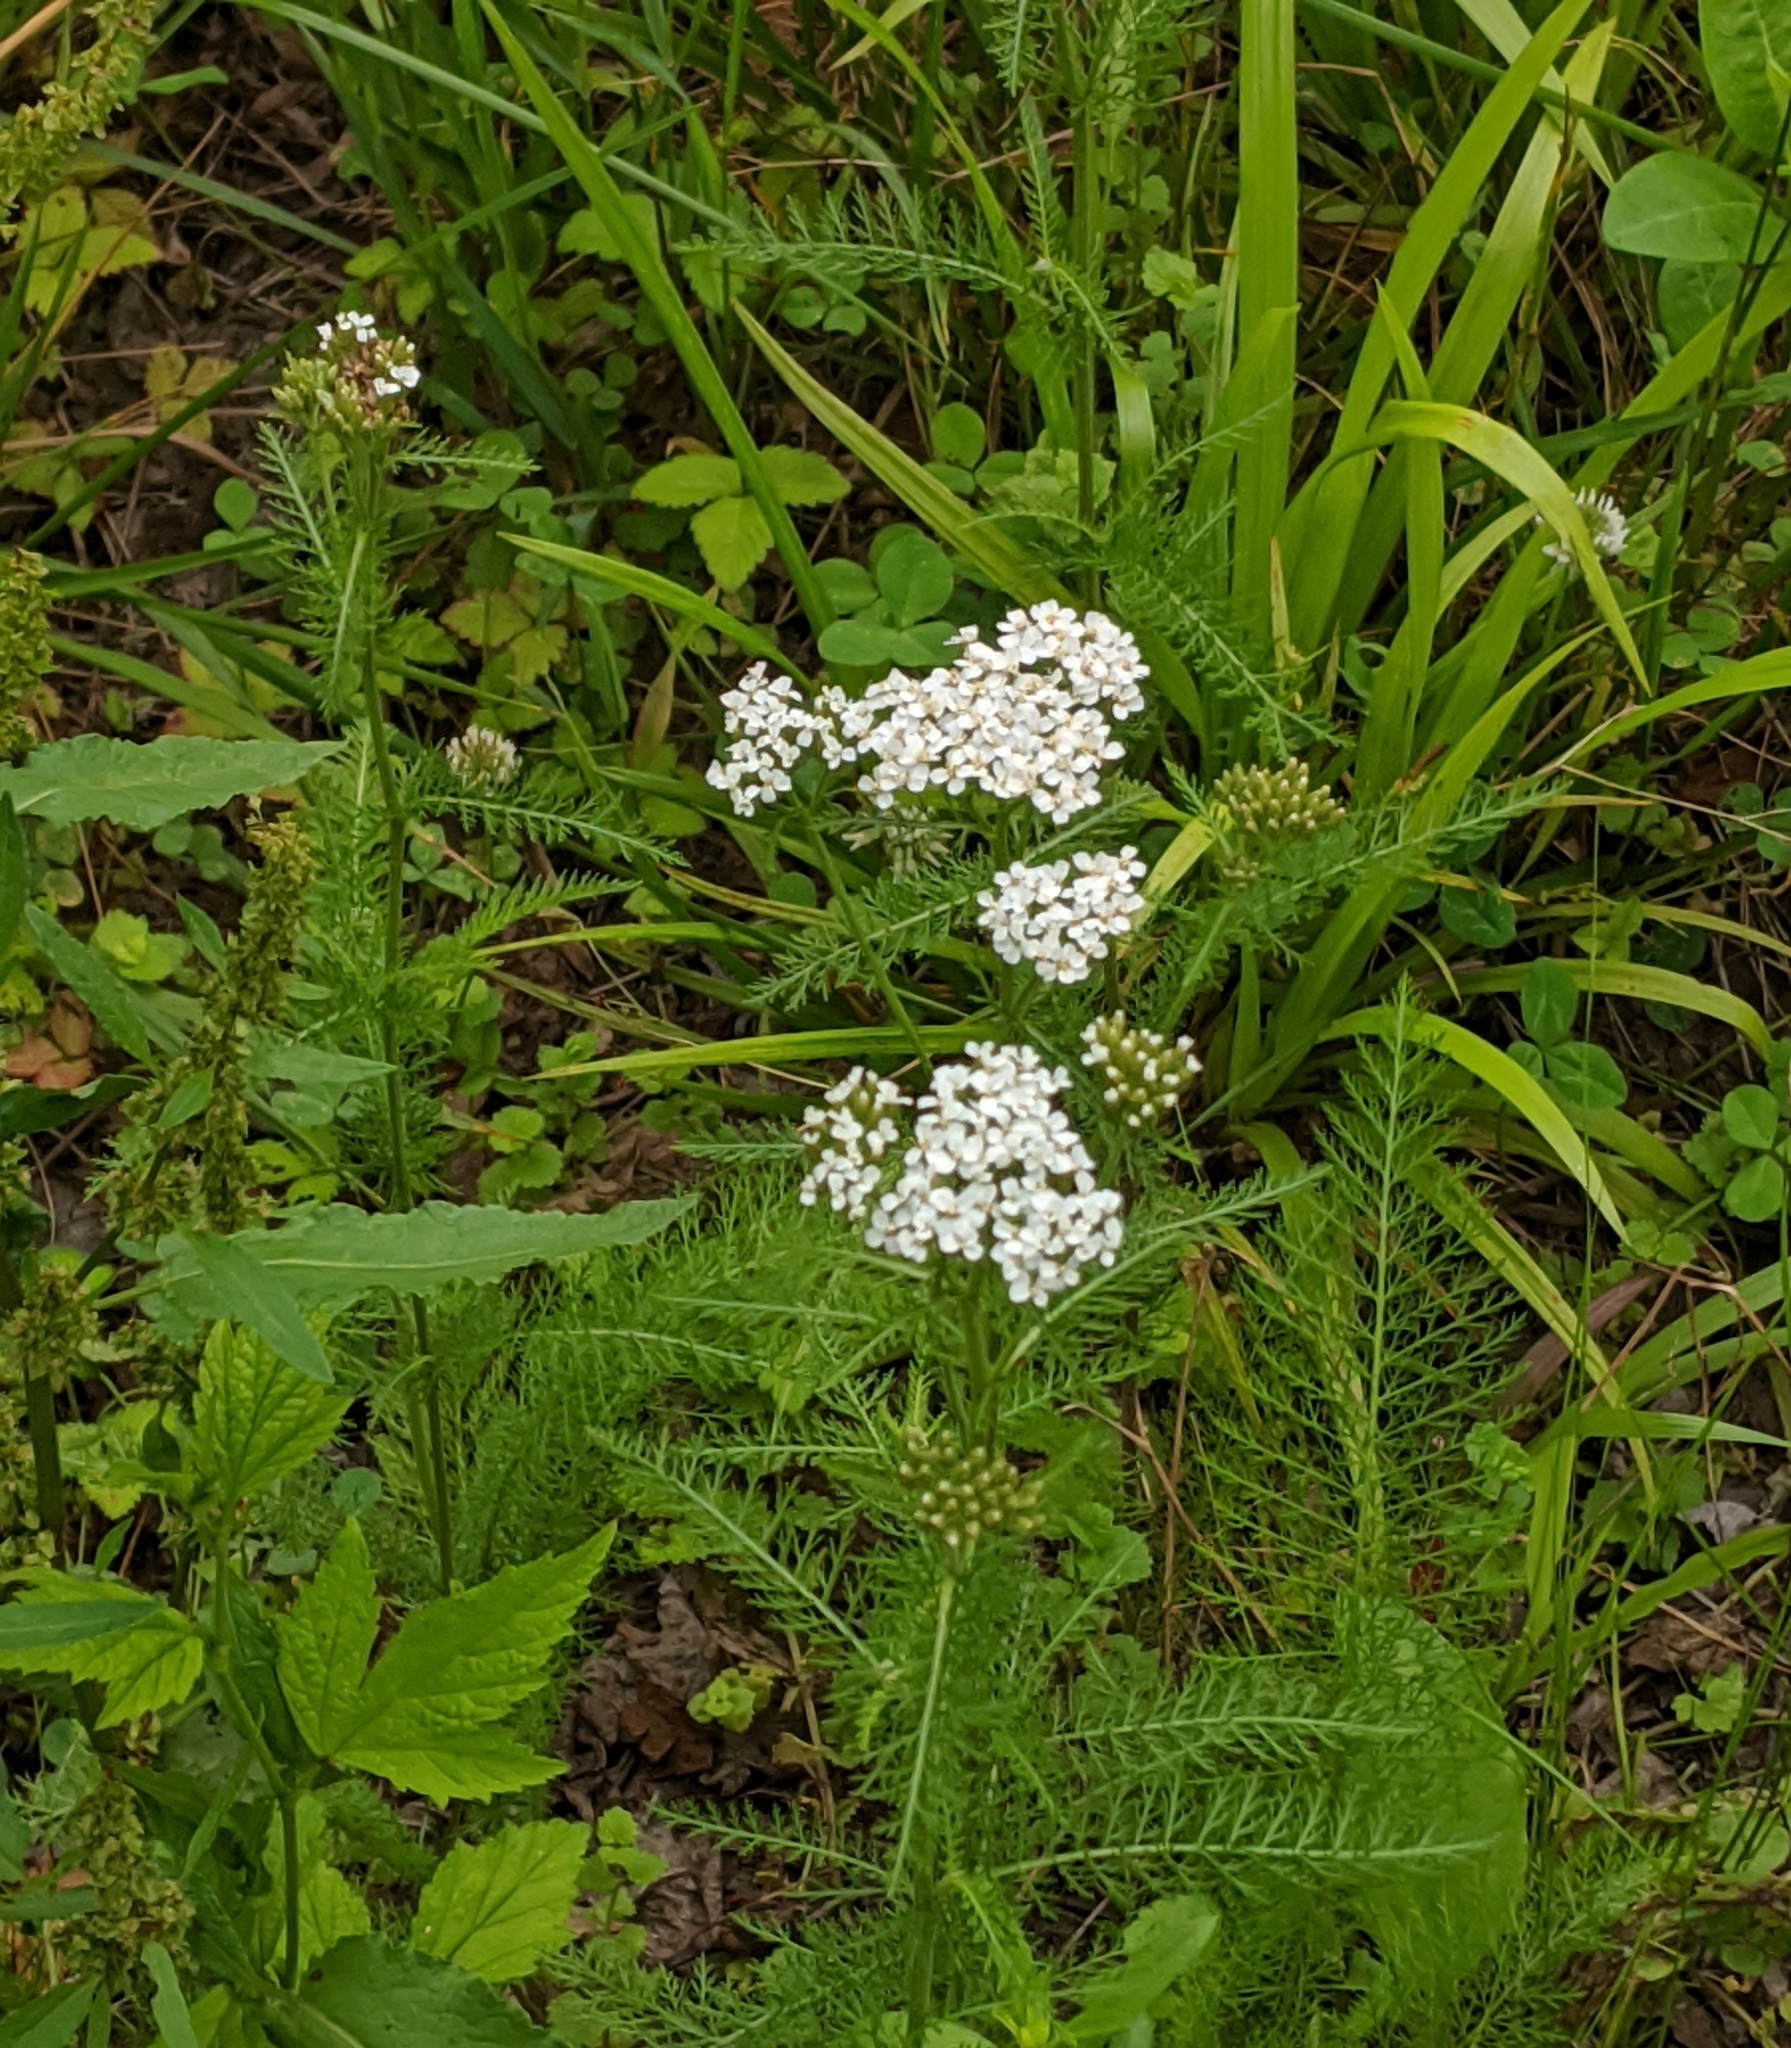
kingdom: Plantae
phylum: Tracheophyta
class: Magnoliopsida
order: Asterales
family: Asteraceae
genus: Achillea
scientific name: Achillea millefolium
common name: Yarrow
